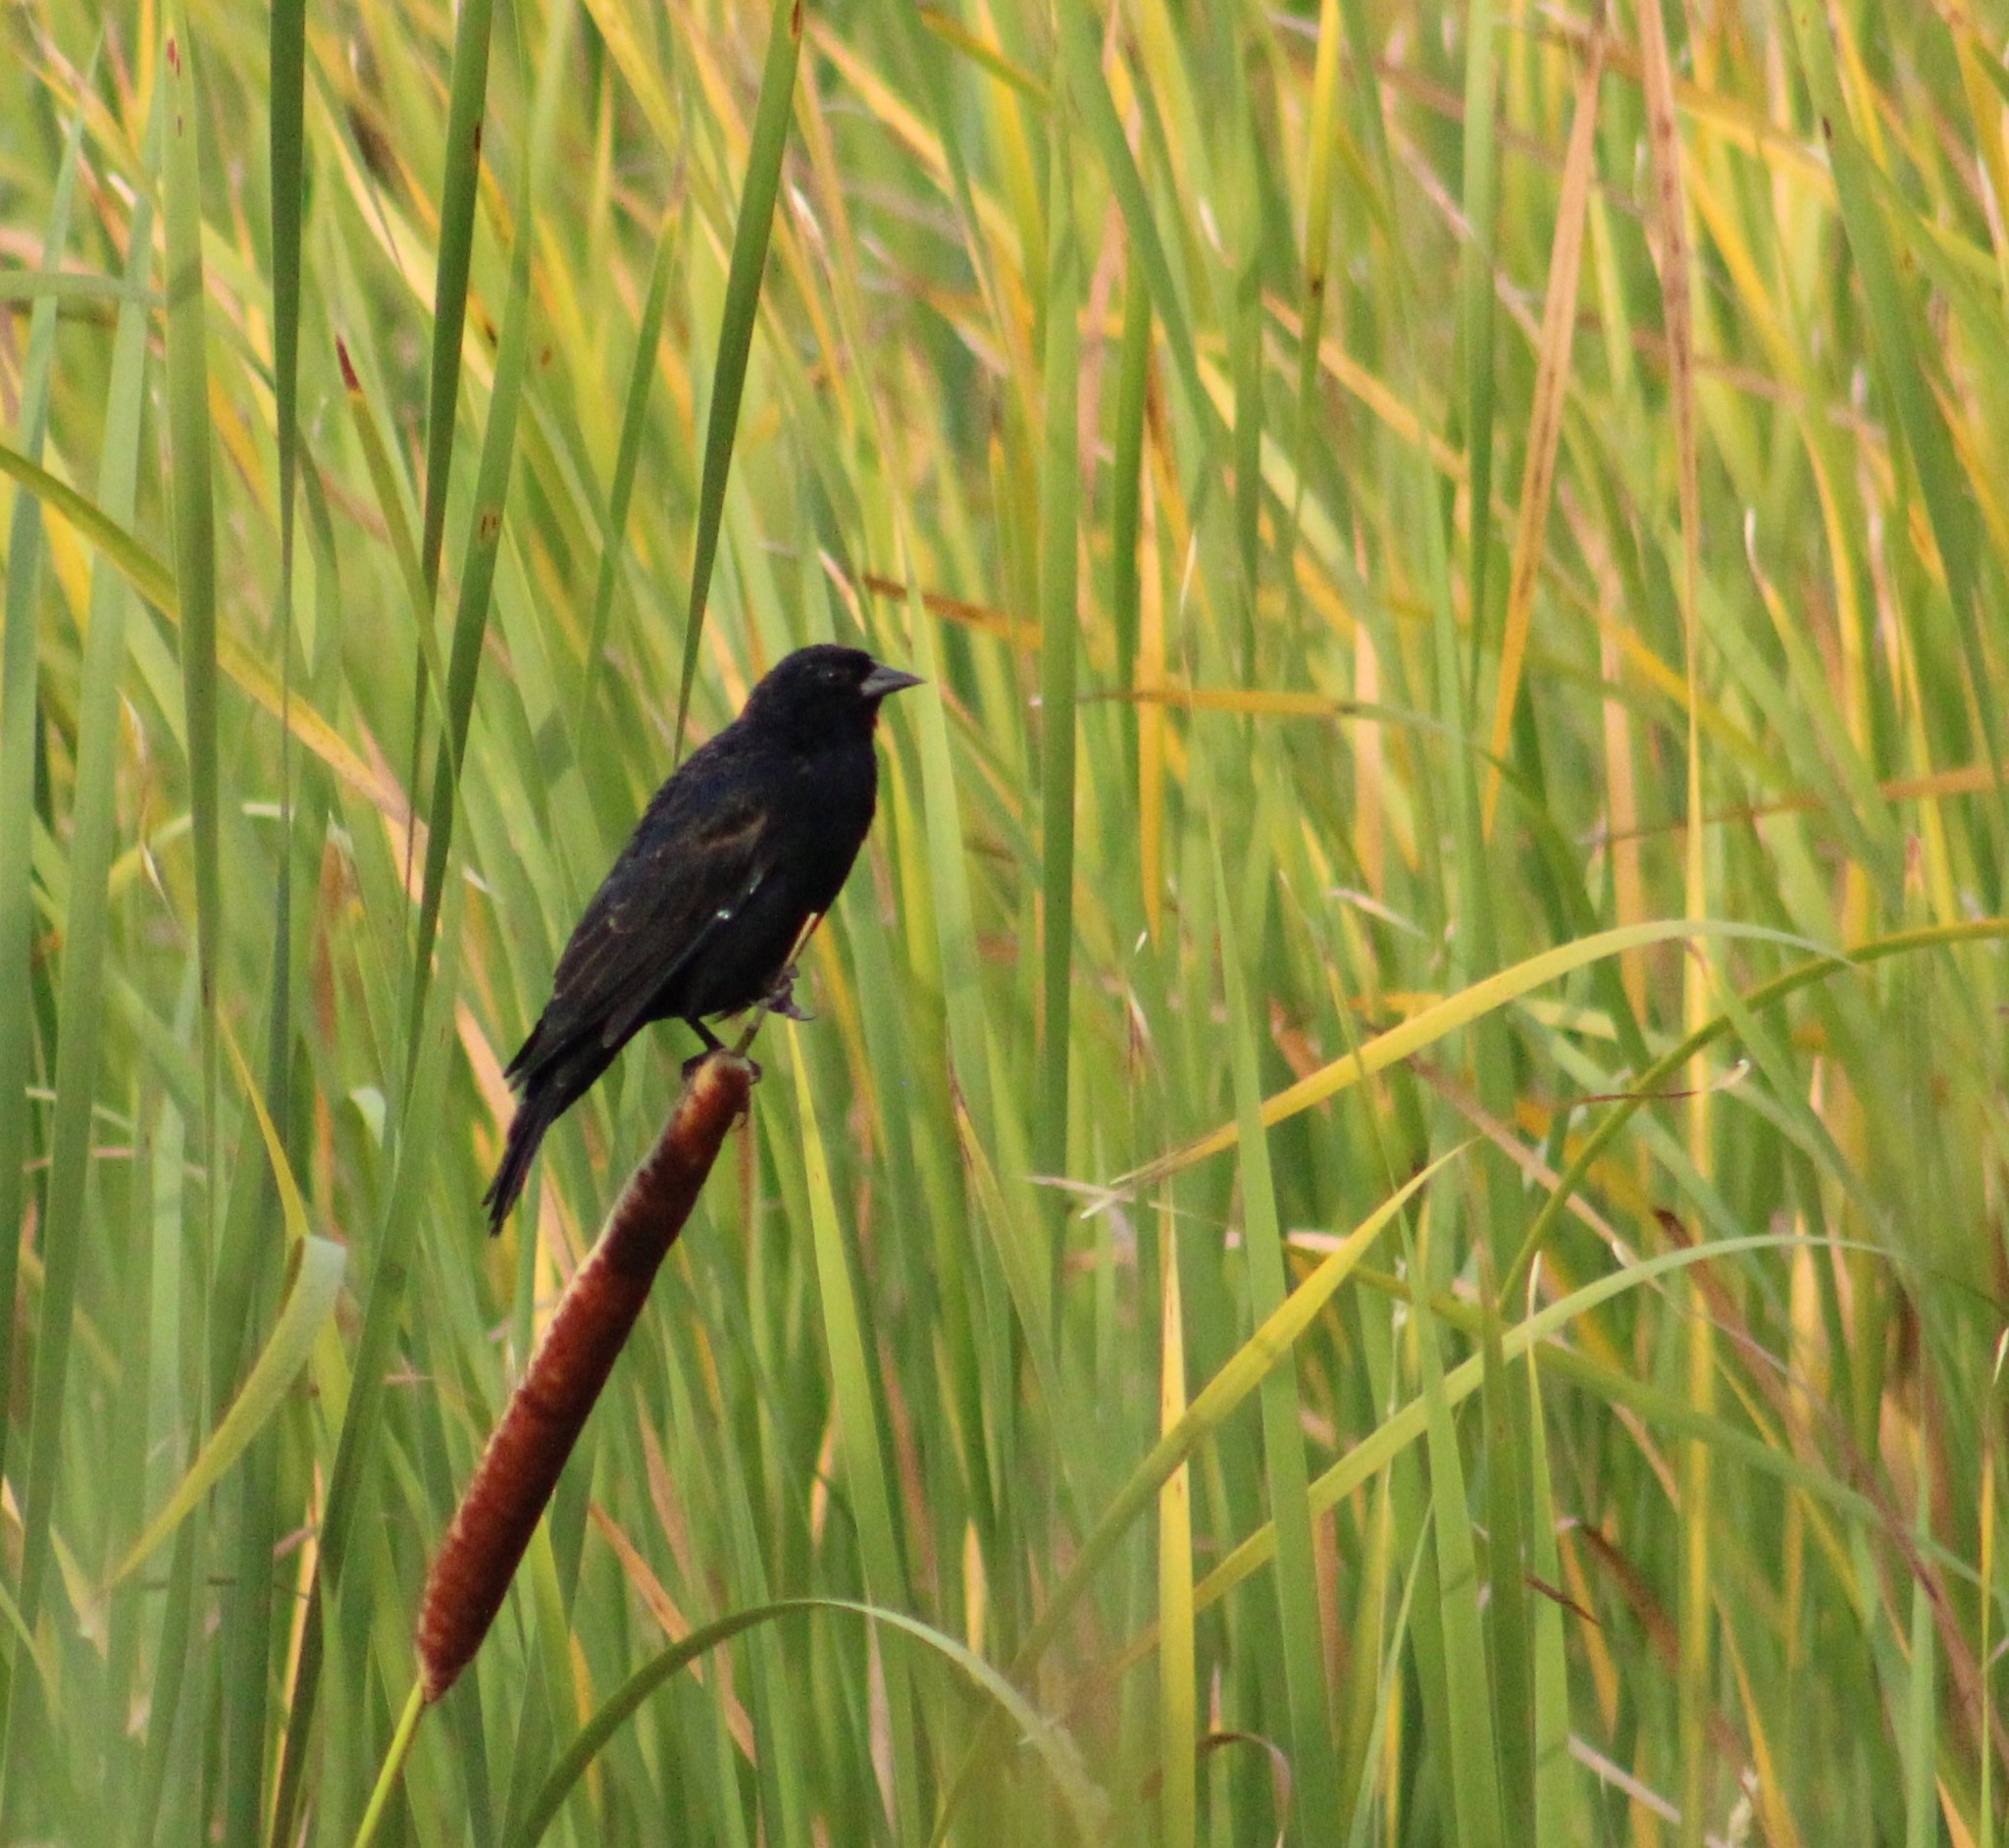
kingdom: Animalia
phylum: Chordata
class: Aves
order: Passeriformes
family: Icteridae
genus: Agelaius
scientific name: Agelaius phoeniceus
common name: Red-winged blackbird
